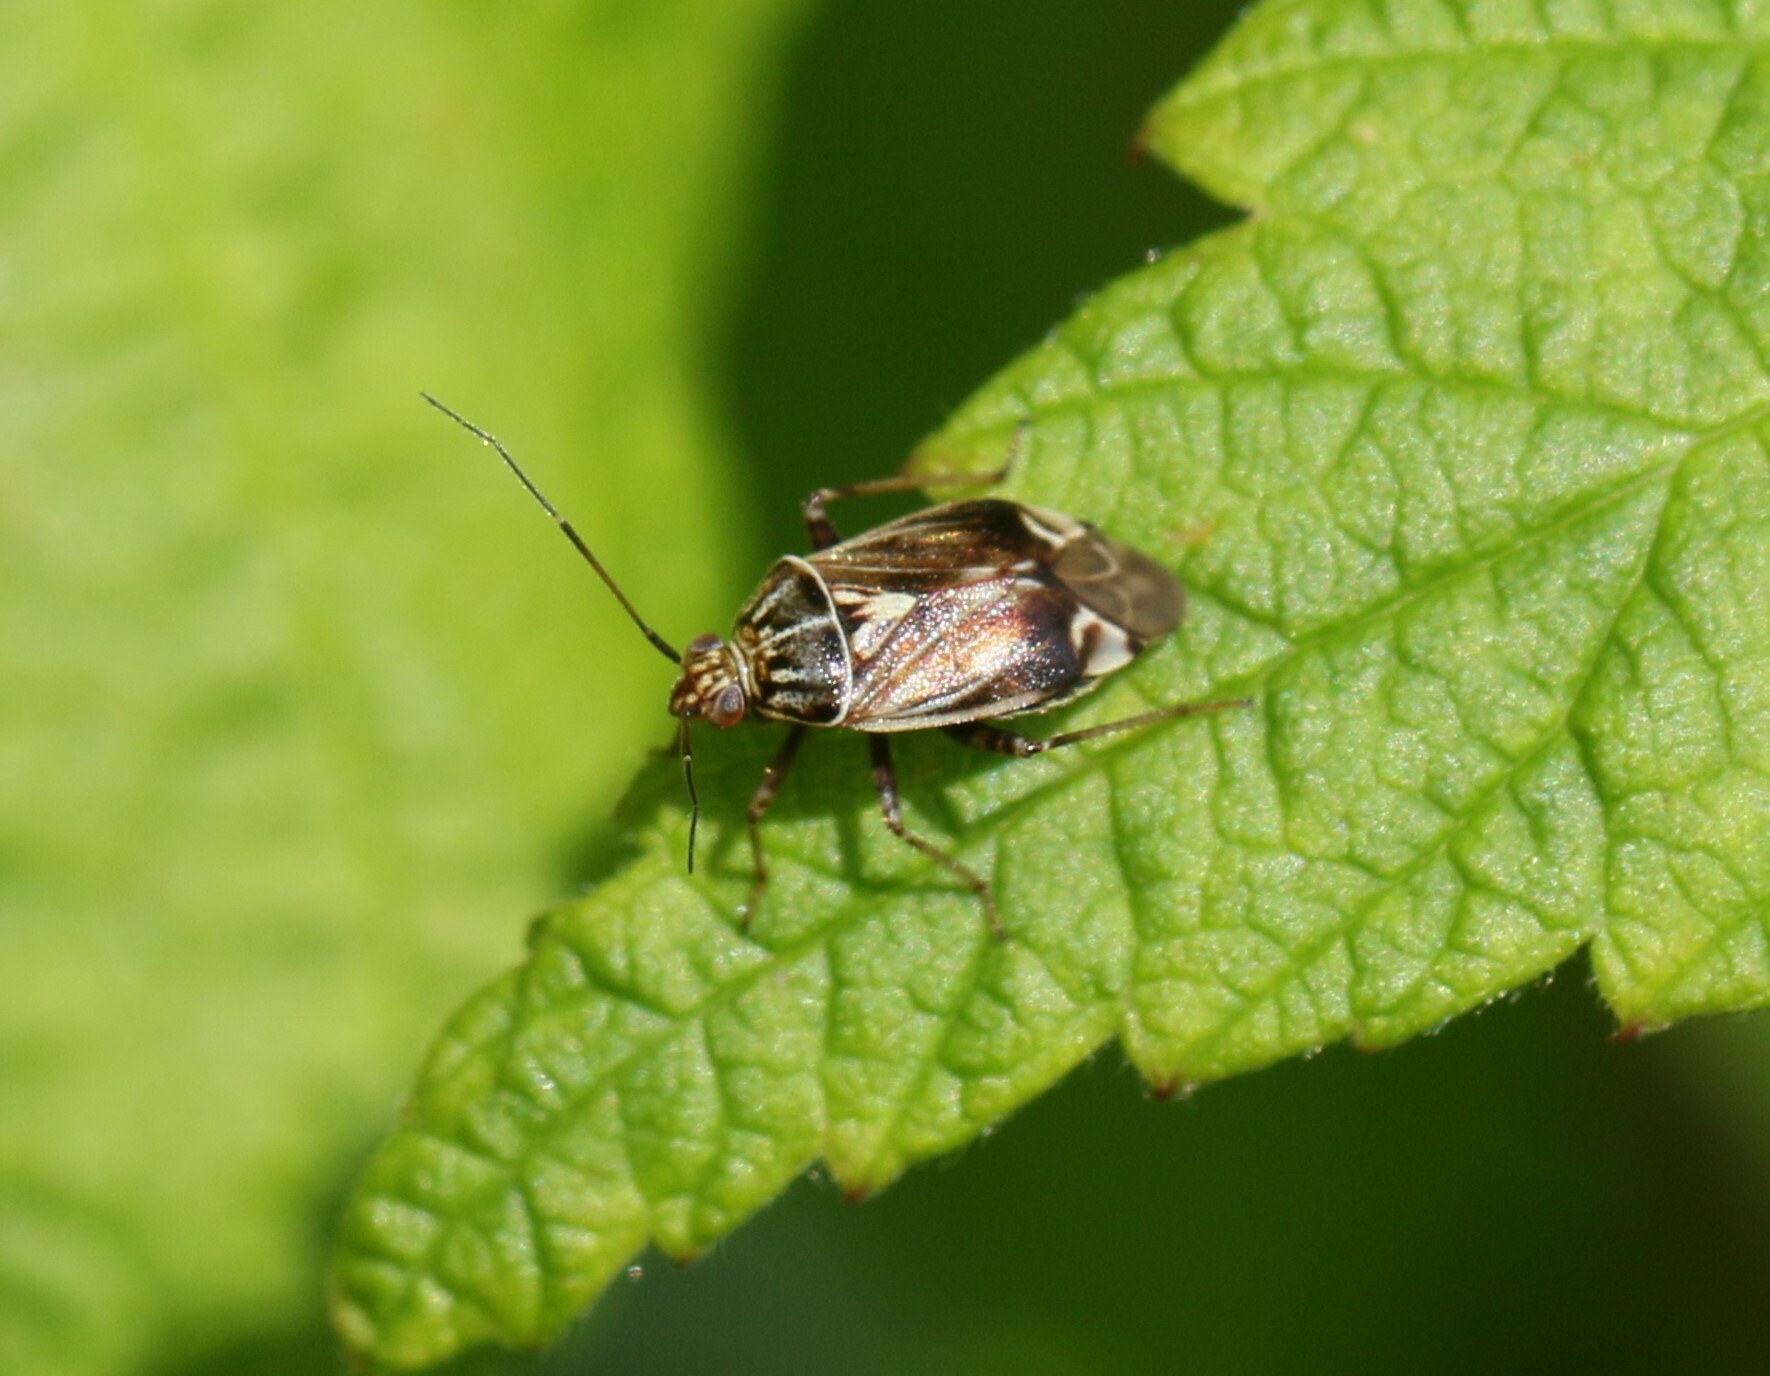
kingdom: Animalia
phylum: Arthropoda
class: Insecta
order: Hemiptera
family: Miridae
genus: Lygus
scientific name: Lygus lineolaris
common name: North american tarnished plant bug
